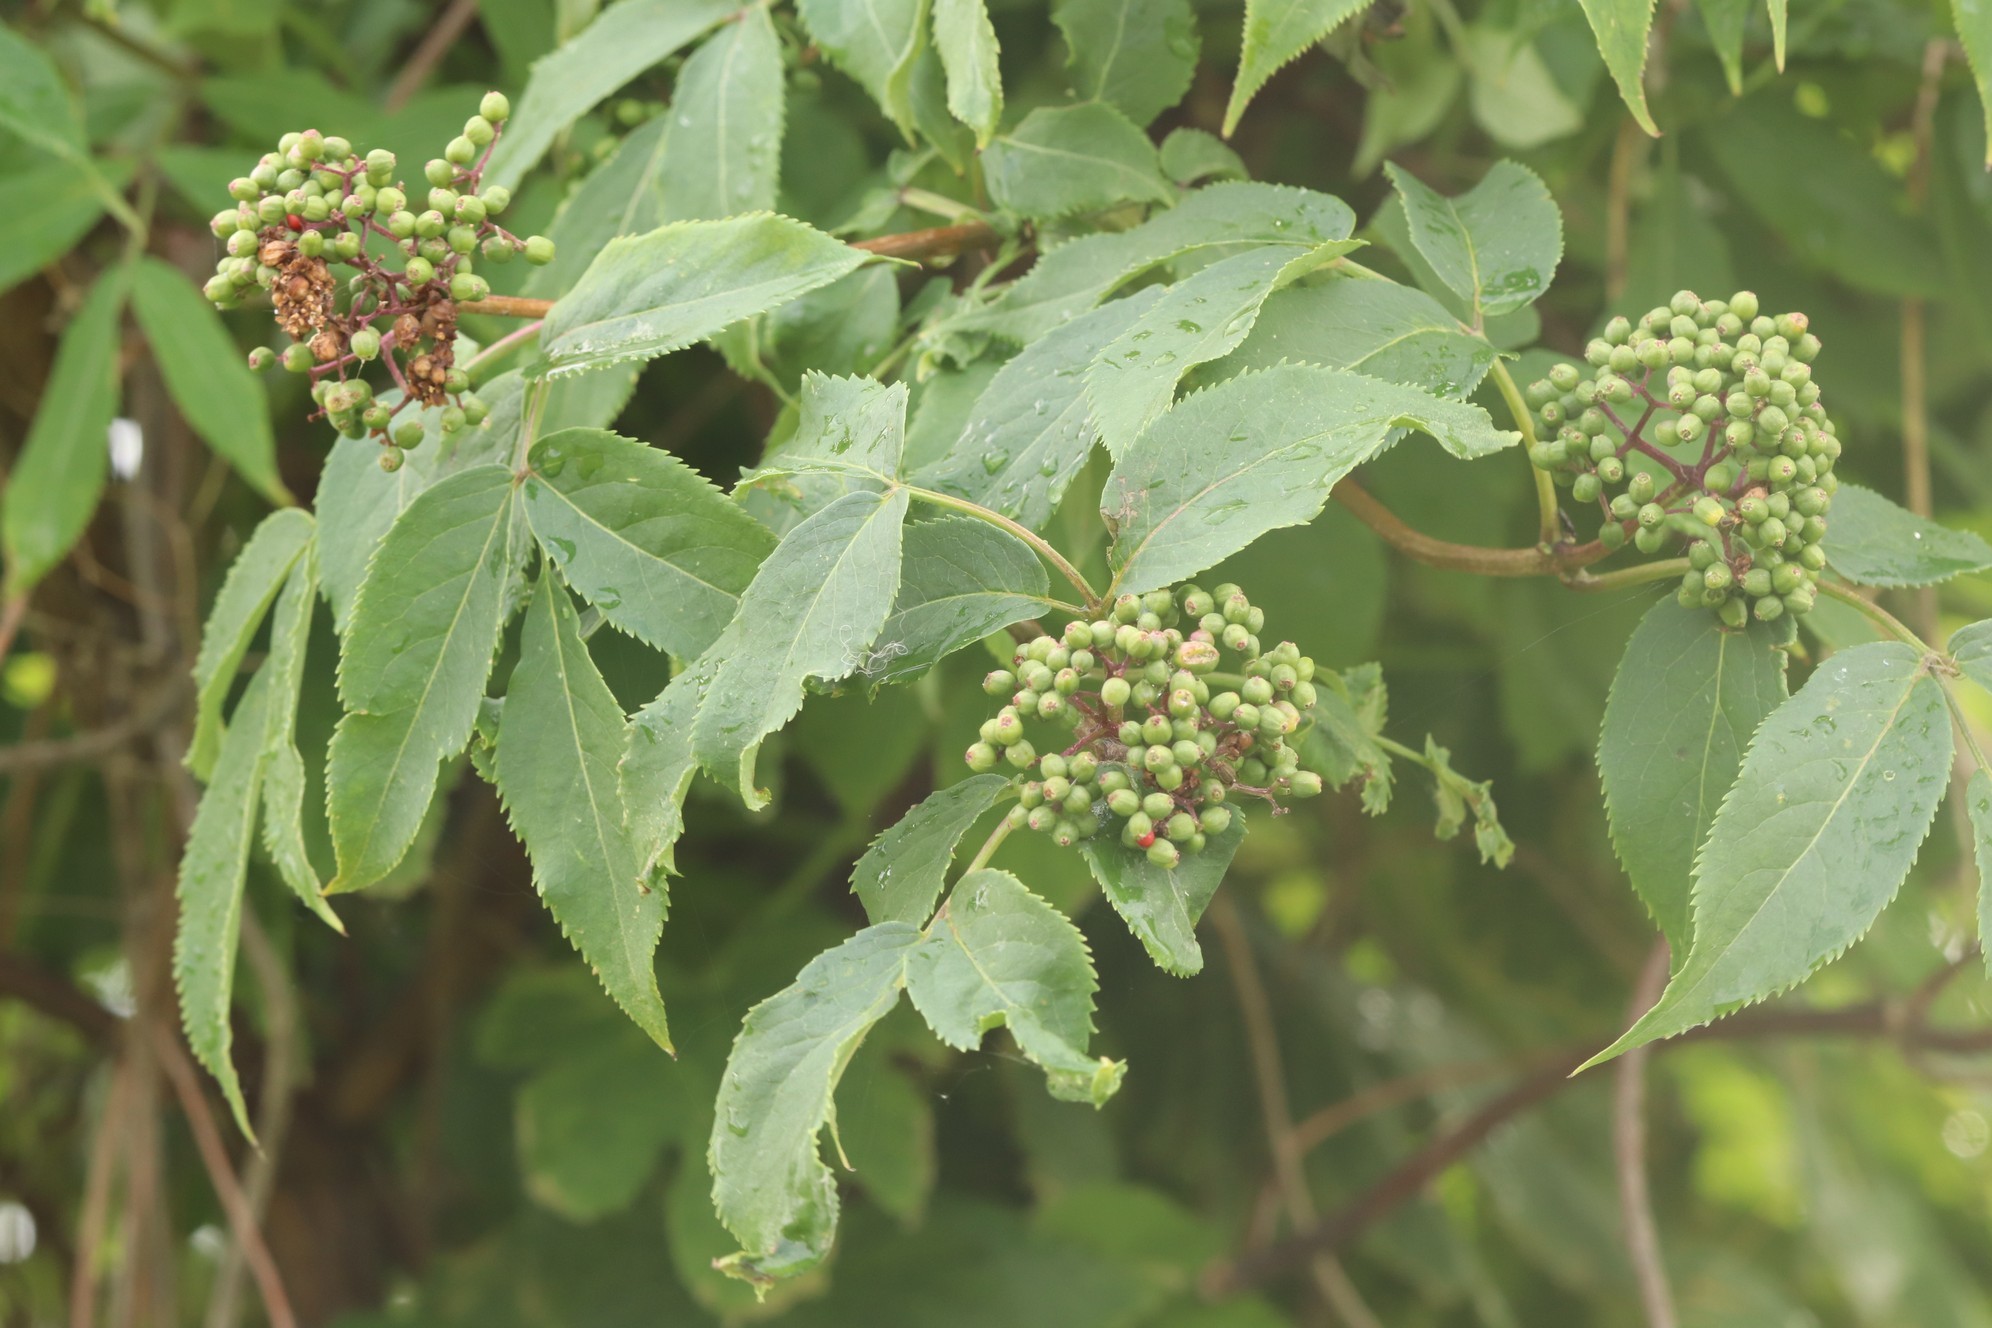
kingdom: Plantae
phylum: Tracheophyta
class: Magnoliopsida
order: Dipsacales
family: Viburnaceae
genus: Sambucus
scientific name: Sambucus sibirica
